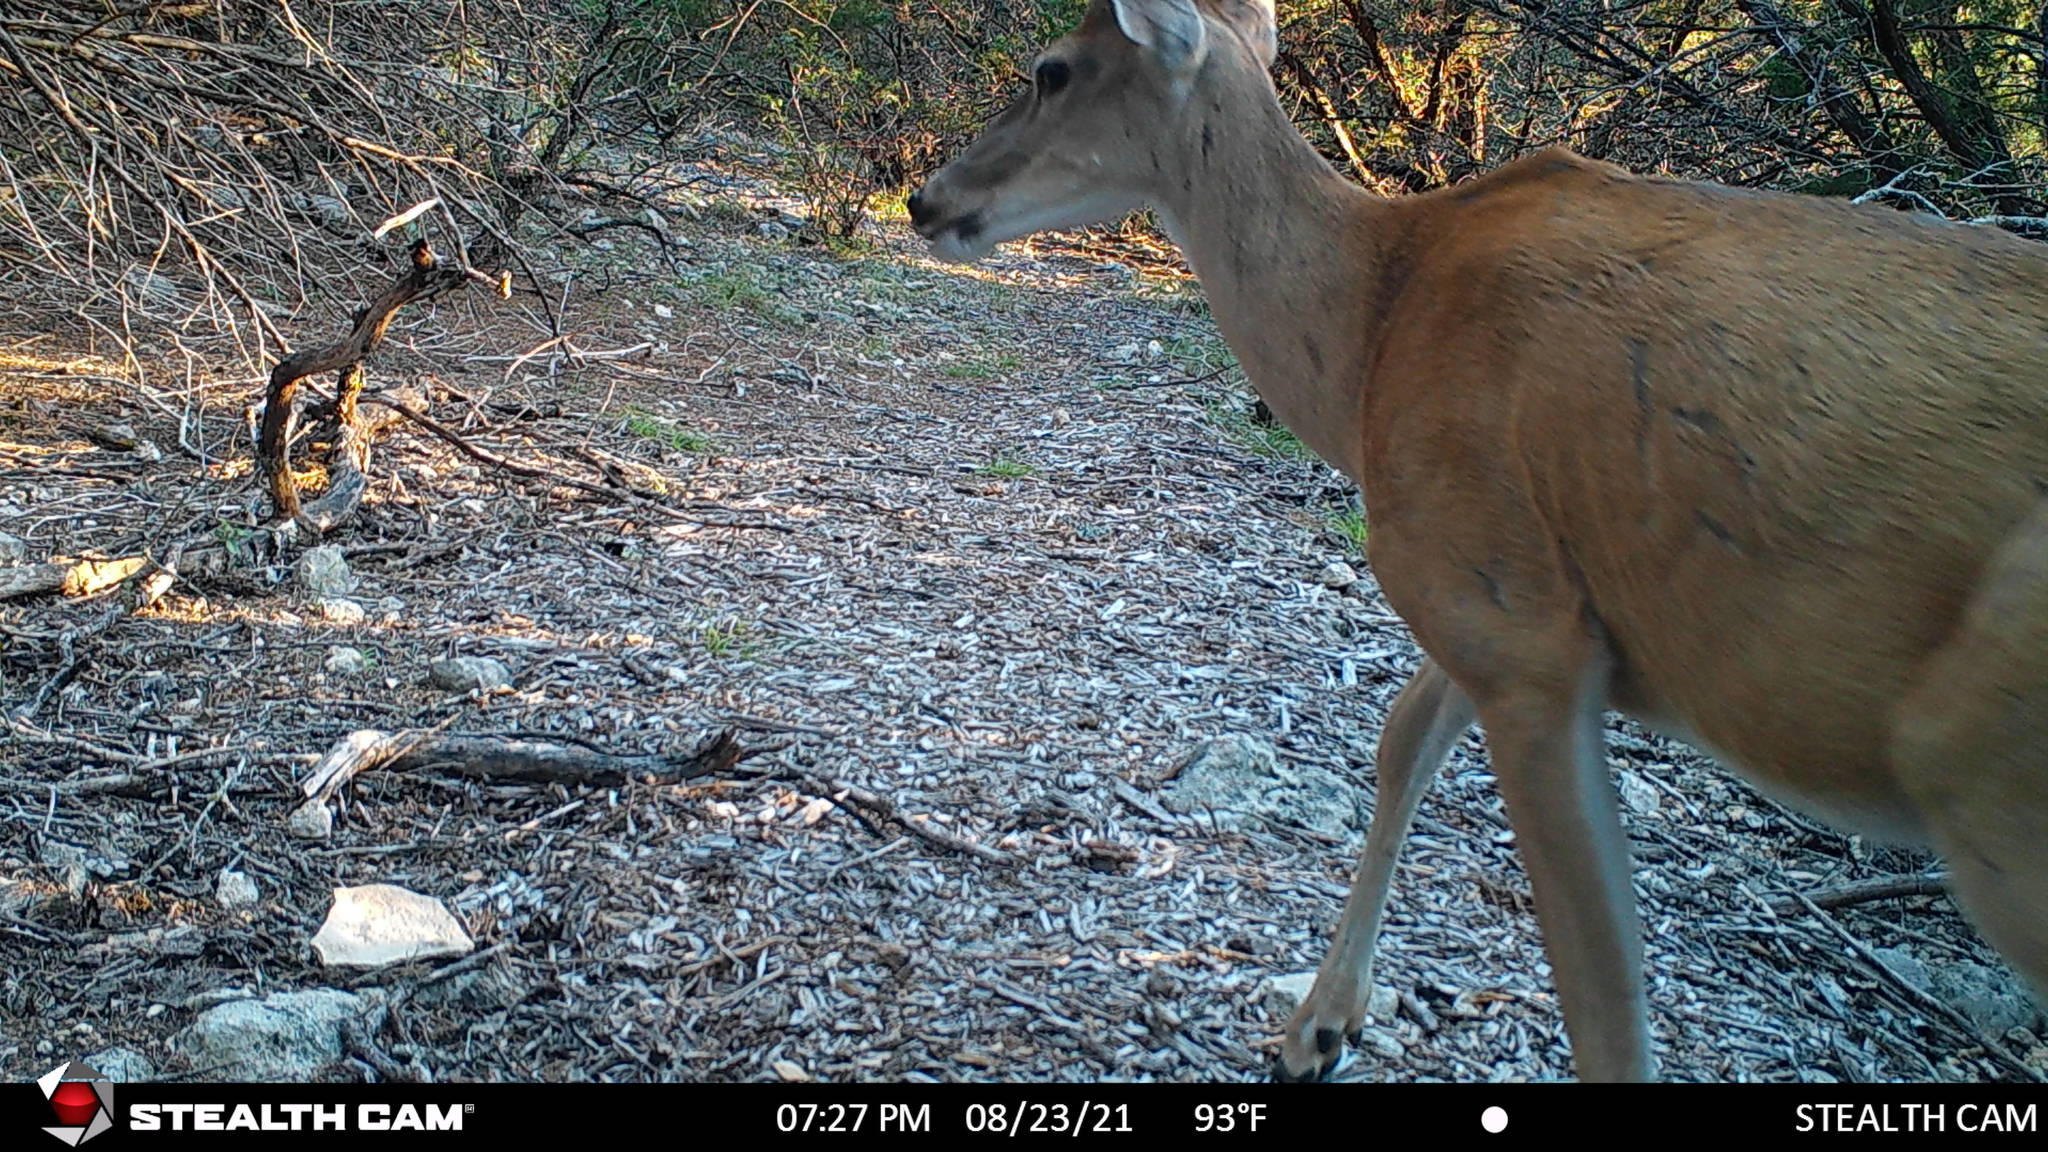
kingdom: Animalia
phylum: Chordata
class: Mammalia
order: Artiodactyla
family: Cervidae
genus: Odocoileus
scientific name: Odocoileus virginianus
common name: White-tailed deer
